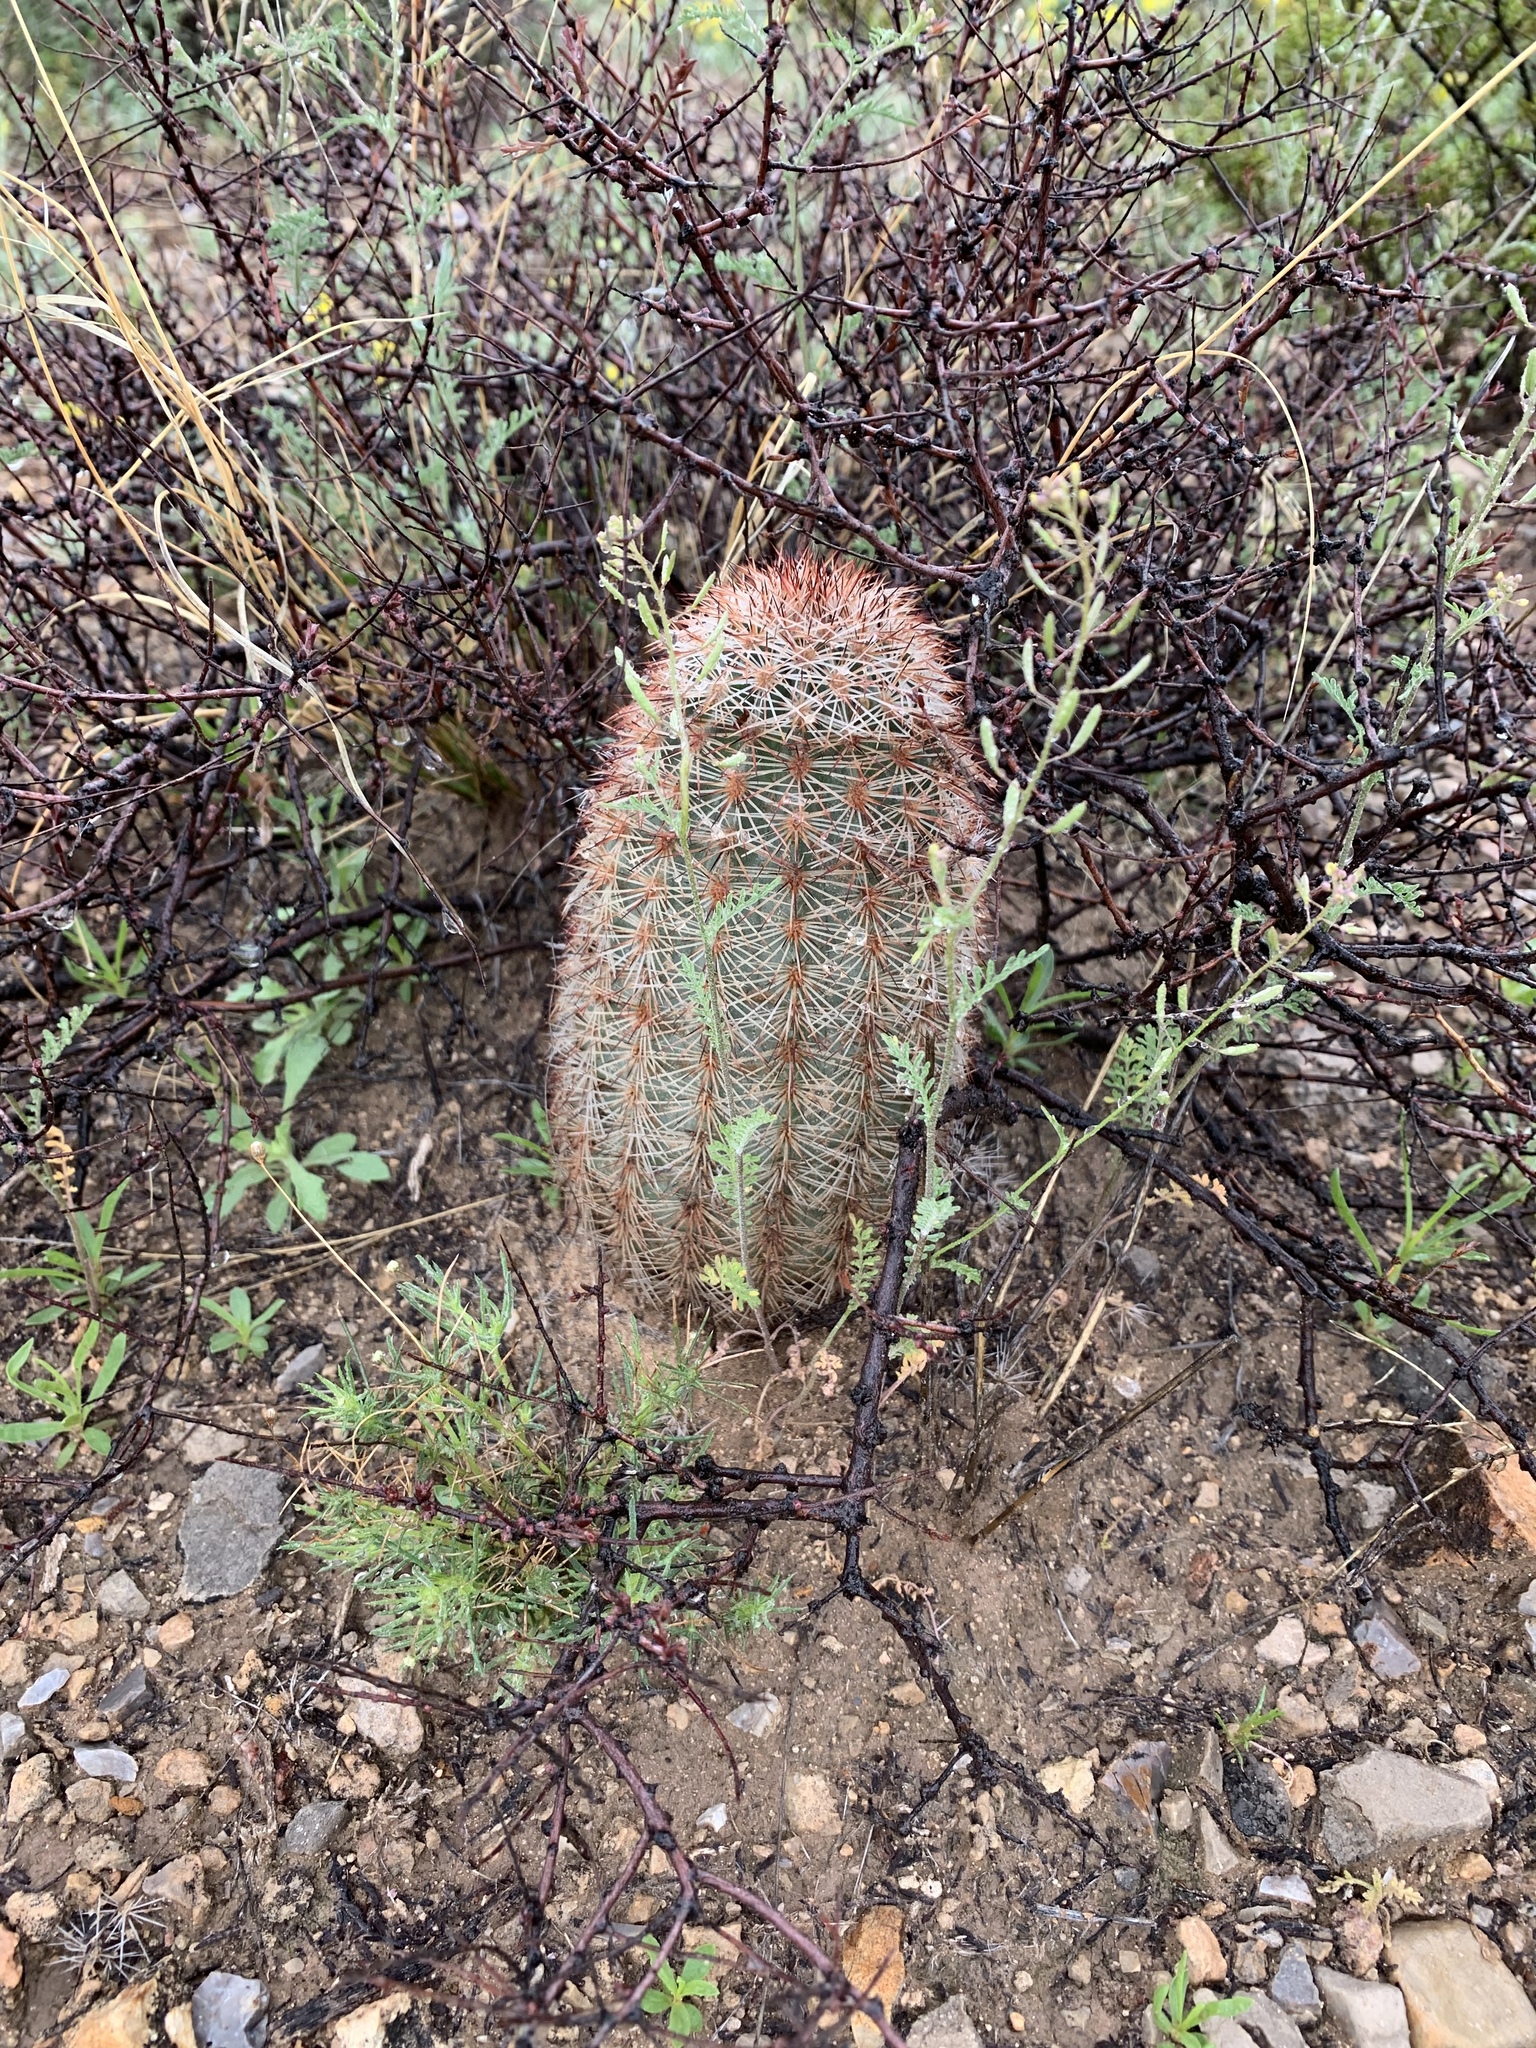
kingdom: Plantae
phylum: Tracheophyta
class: Magnoliopsida
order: Caryophyllales
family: Cactaceae
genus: Echinocereus
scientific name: Echinocereus dasyacanthus
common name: Spiny hedgehog cactus
